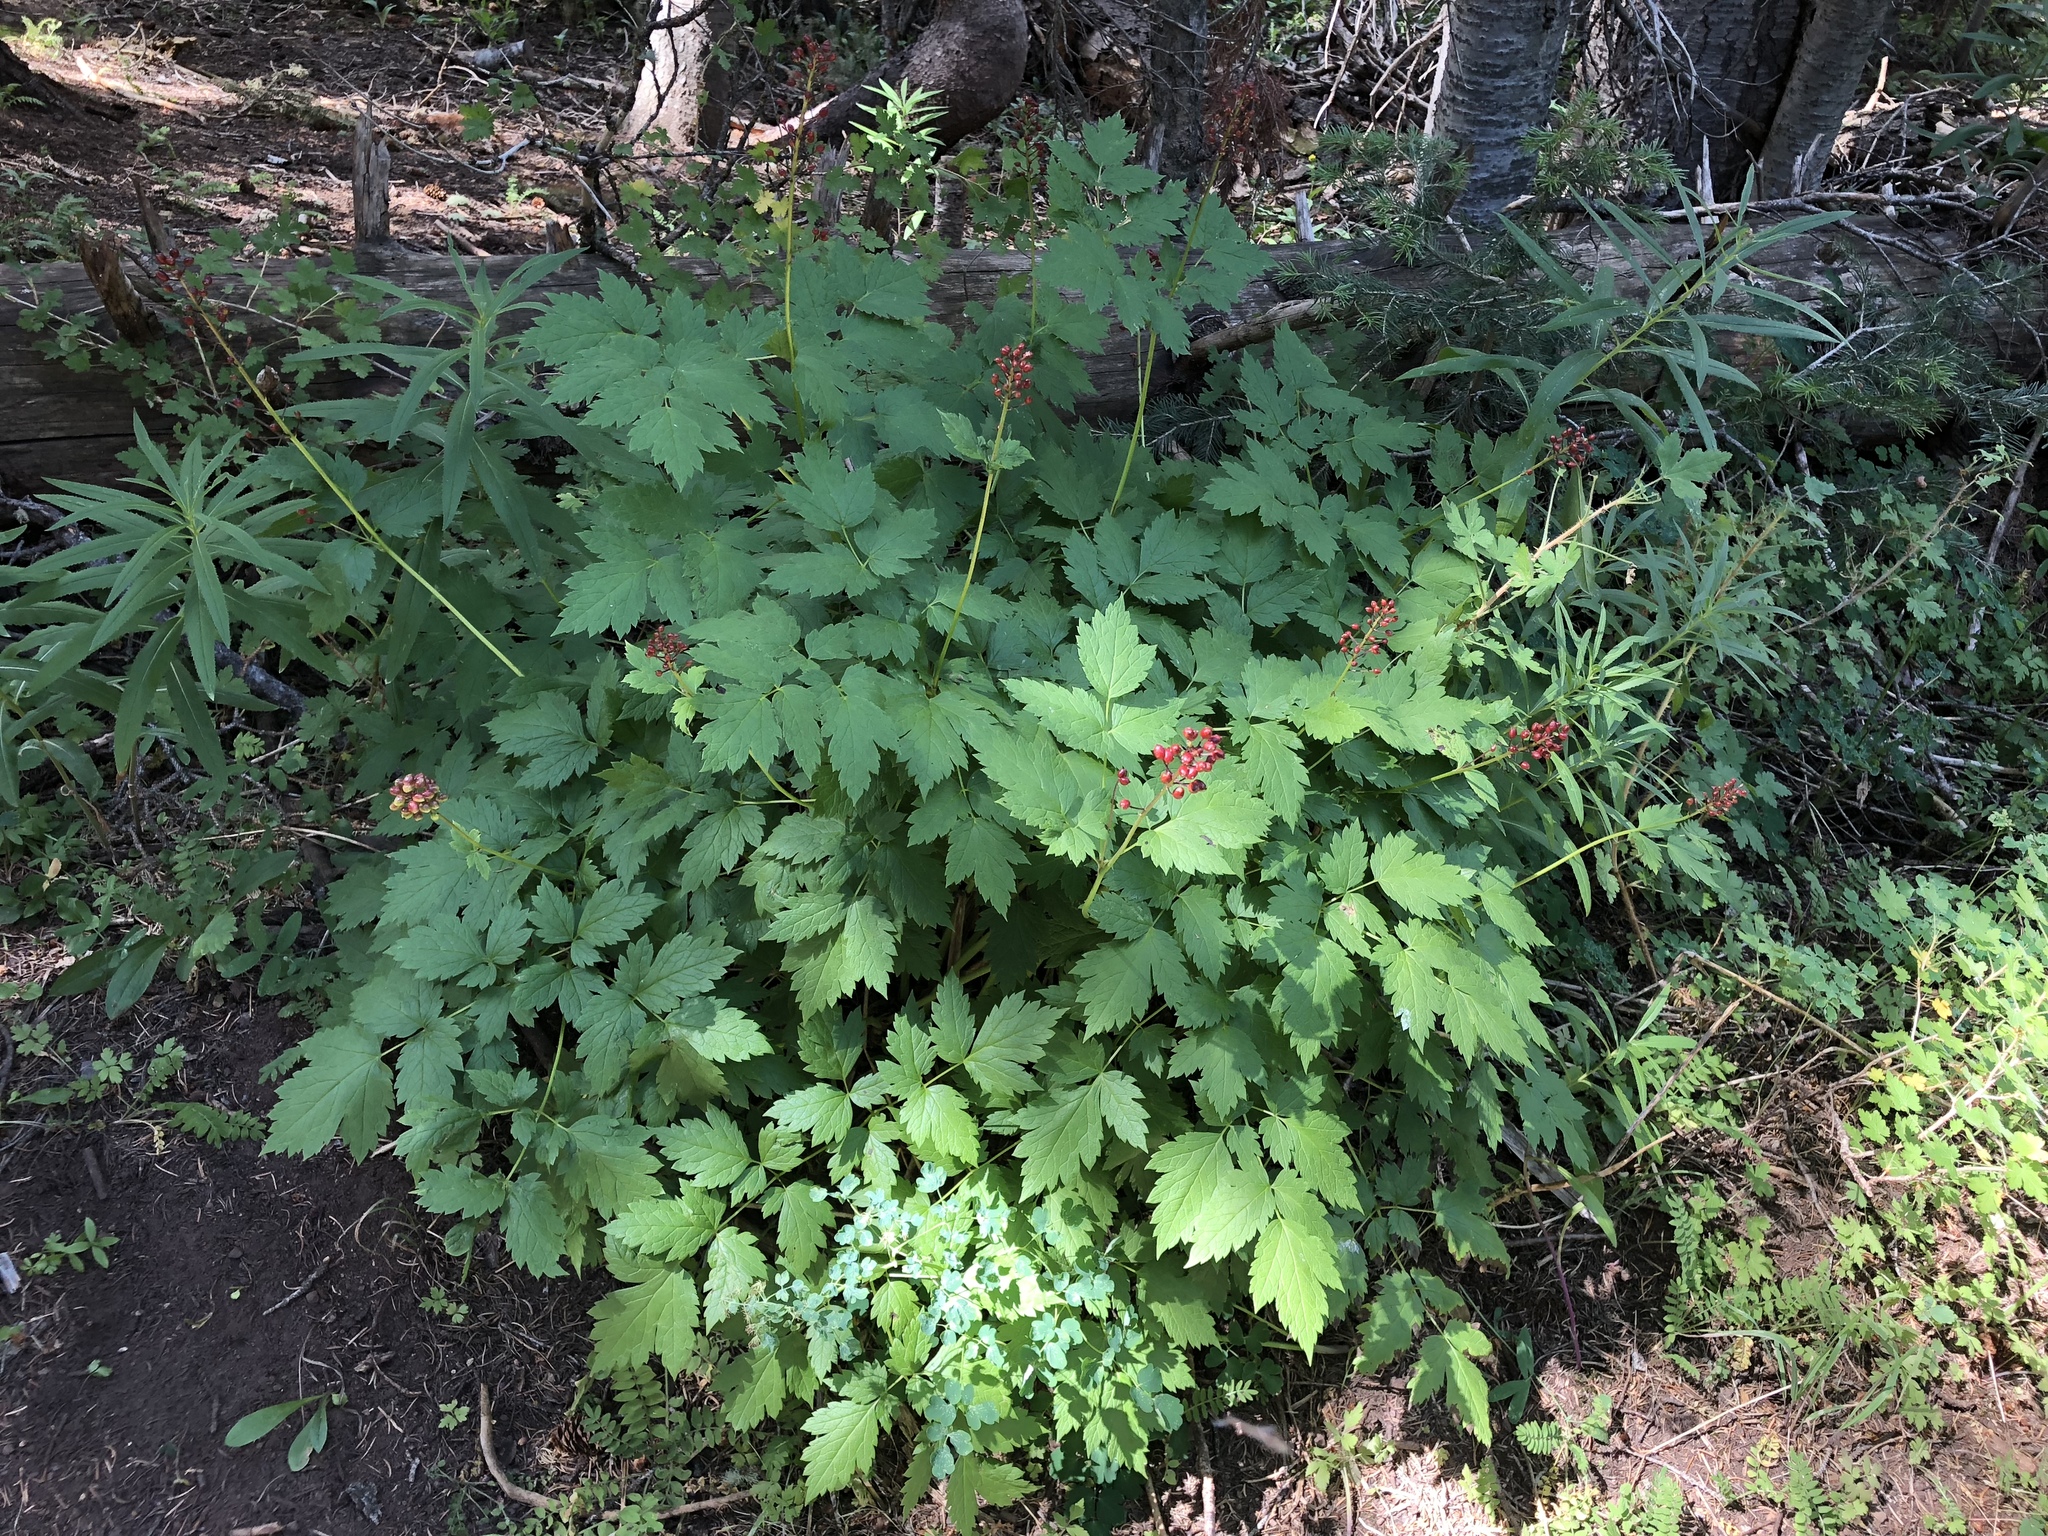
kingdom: Plantae
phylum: Tracheophyta
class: Magnoliopsida
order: Ranunculales
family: Ranunculaceae
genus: Actaea
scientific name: Actaea rubra
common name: Red baneberry
